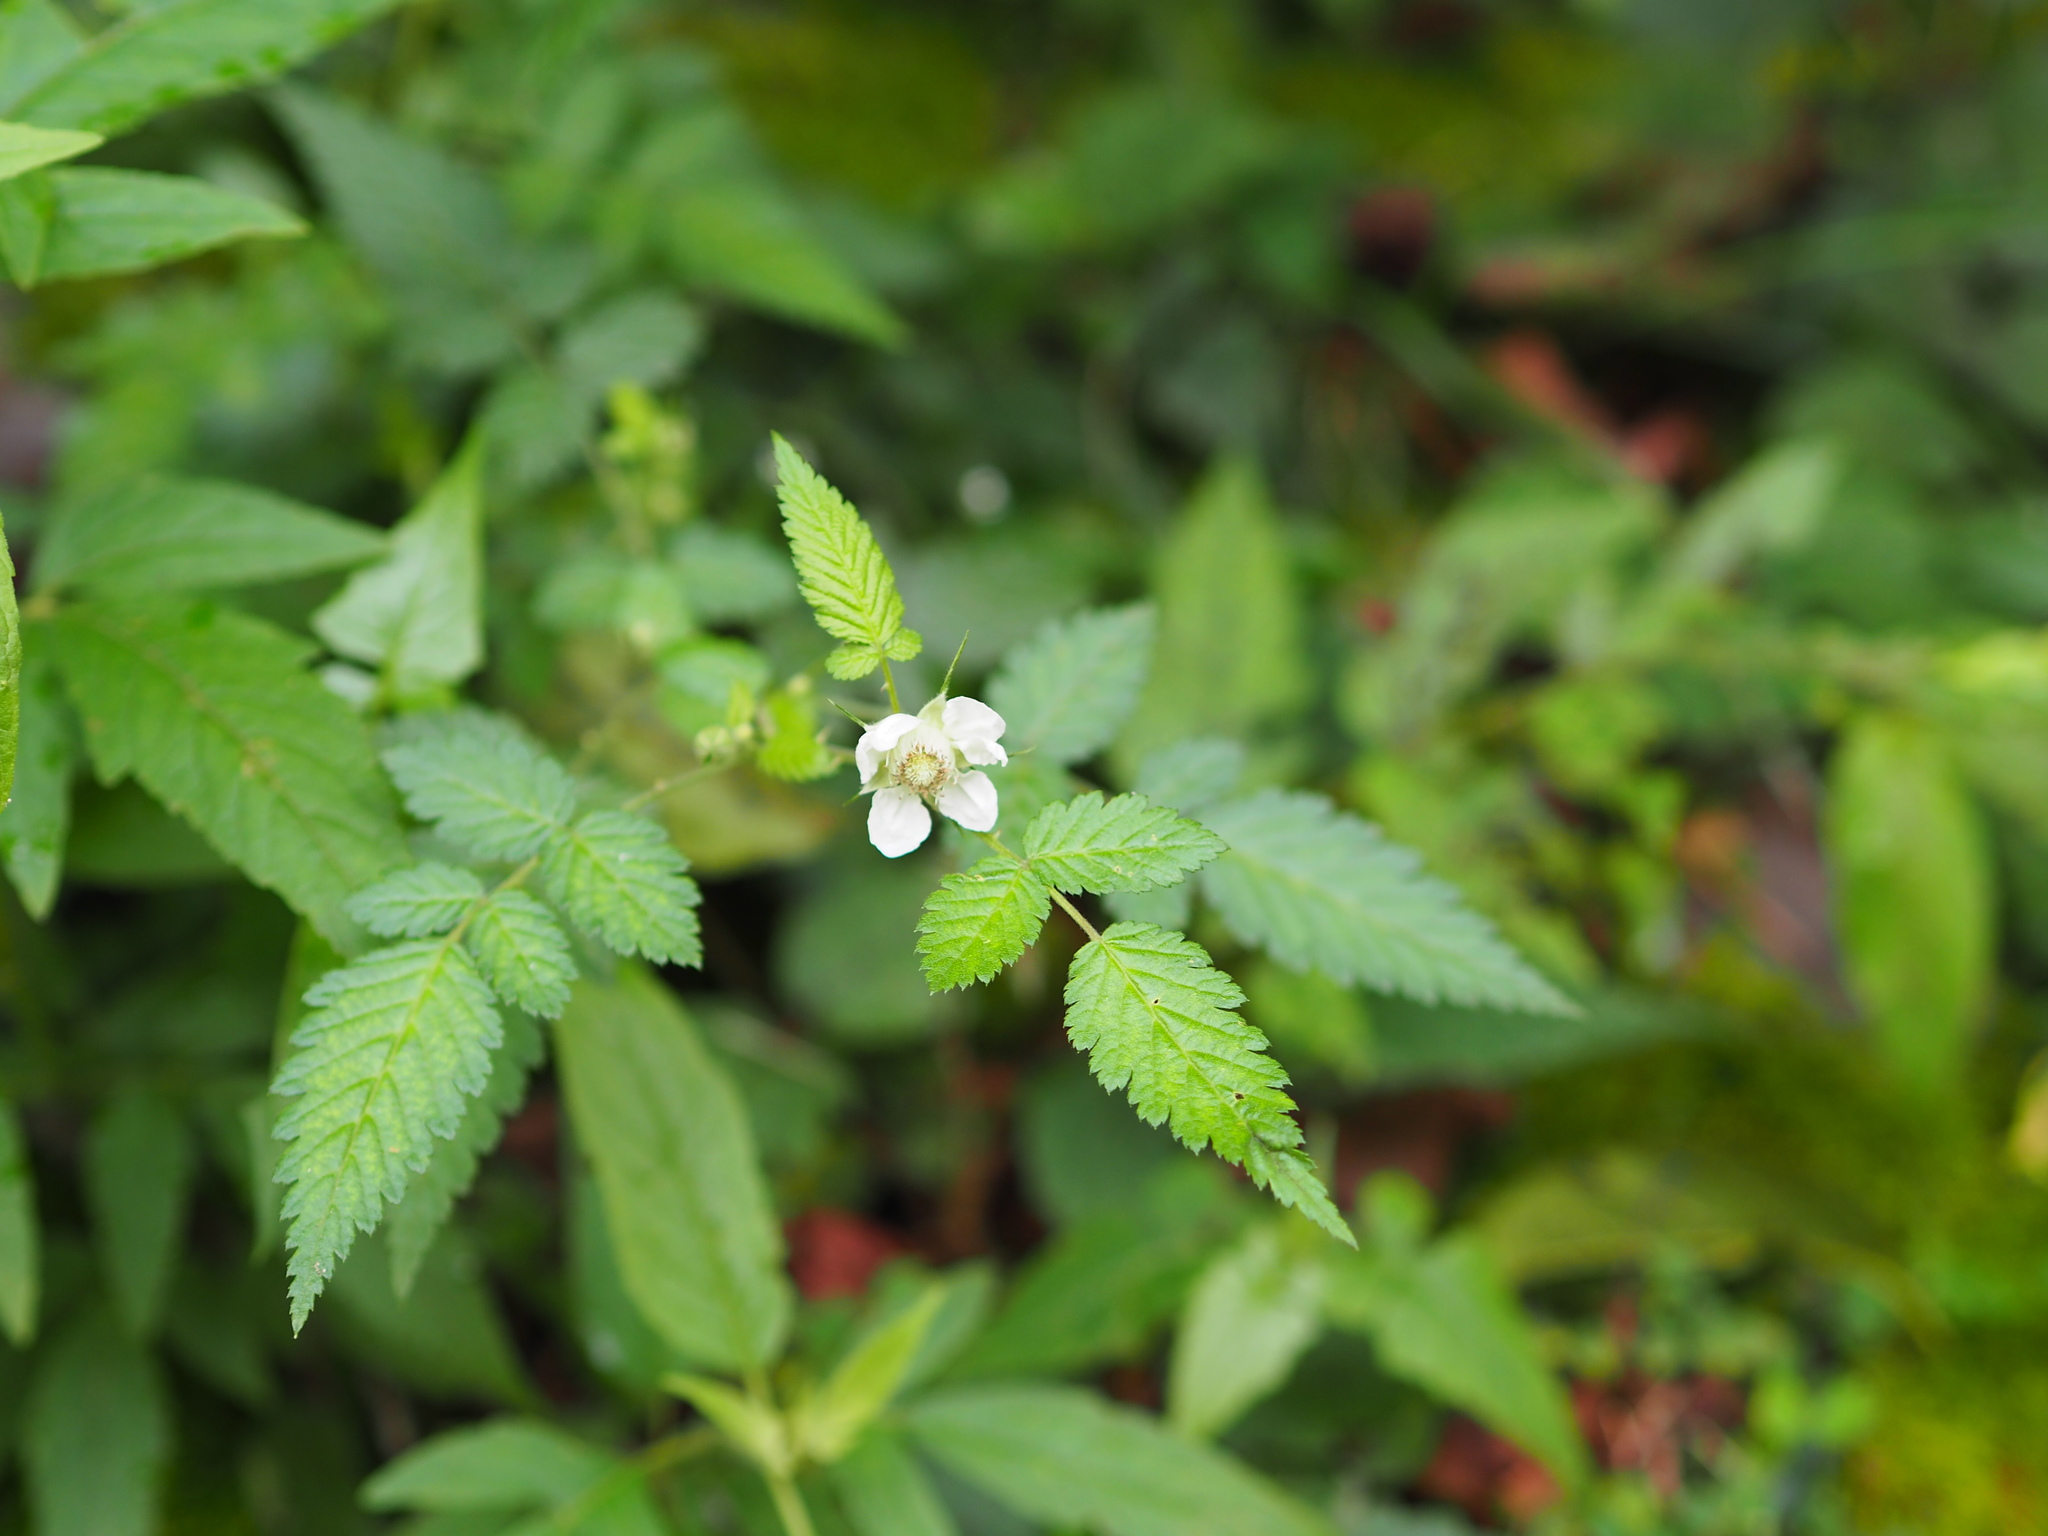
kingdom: Plantae
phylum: Tracheophyta
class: Magnoliopsida
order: Rosales
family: Rosaceae
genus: Rubus
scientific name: Rubus rosifolius
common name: Roseleaf raspberry
